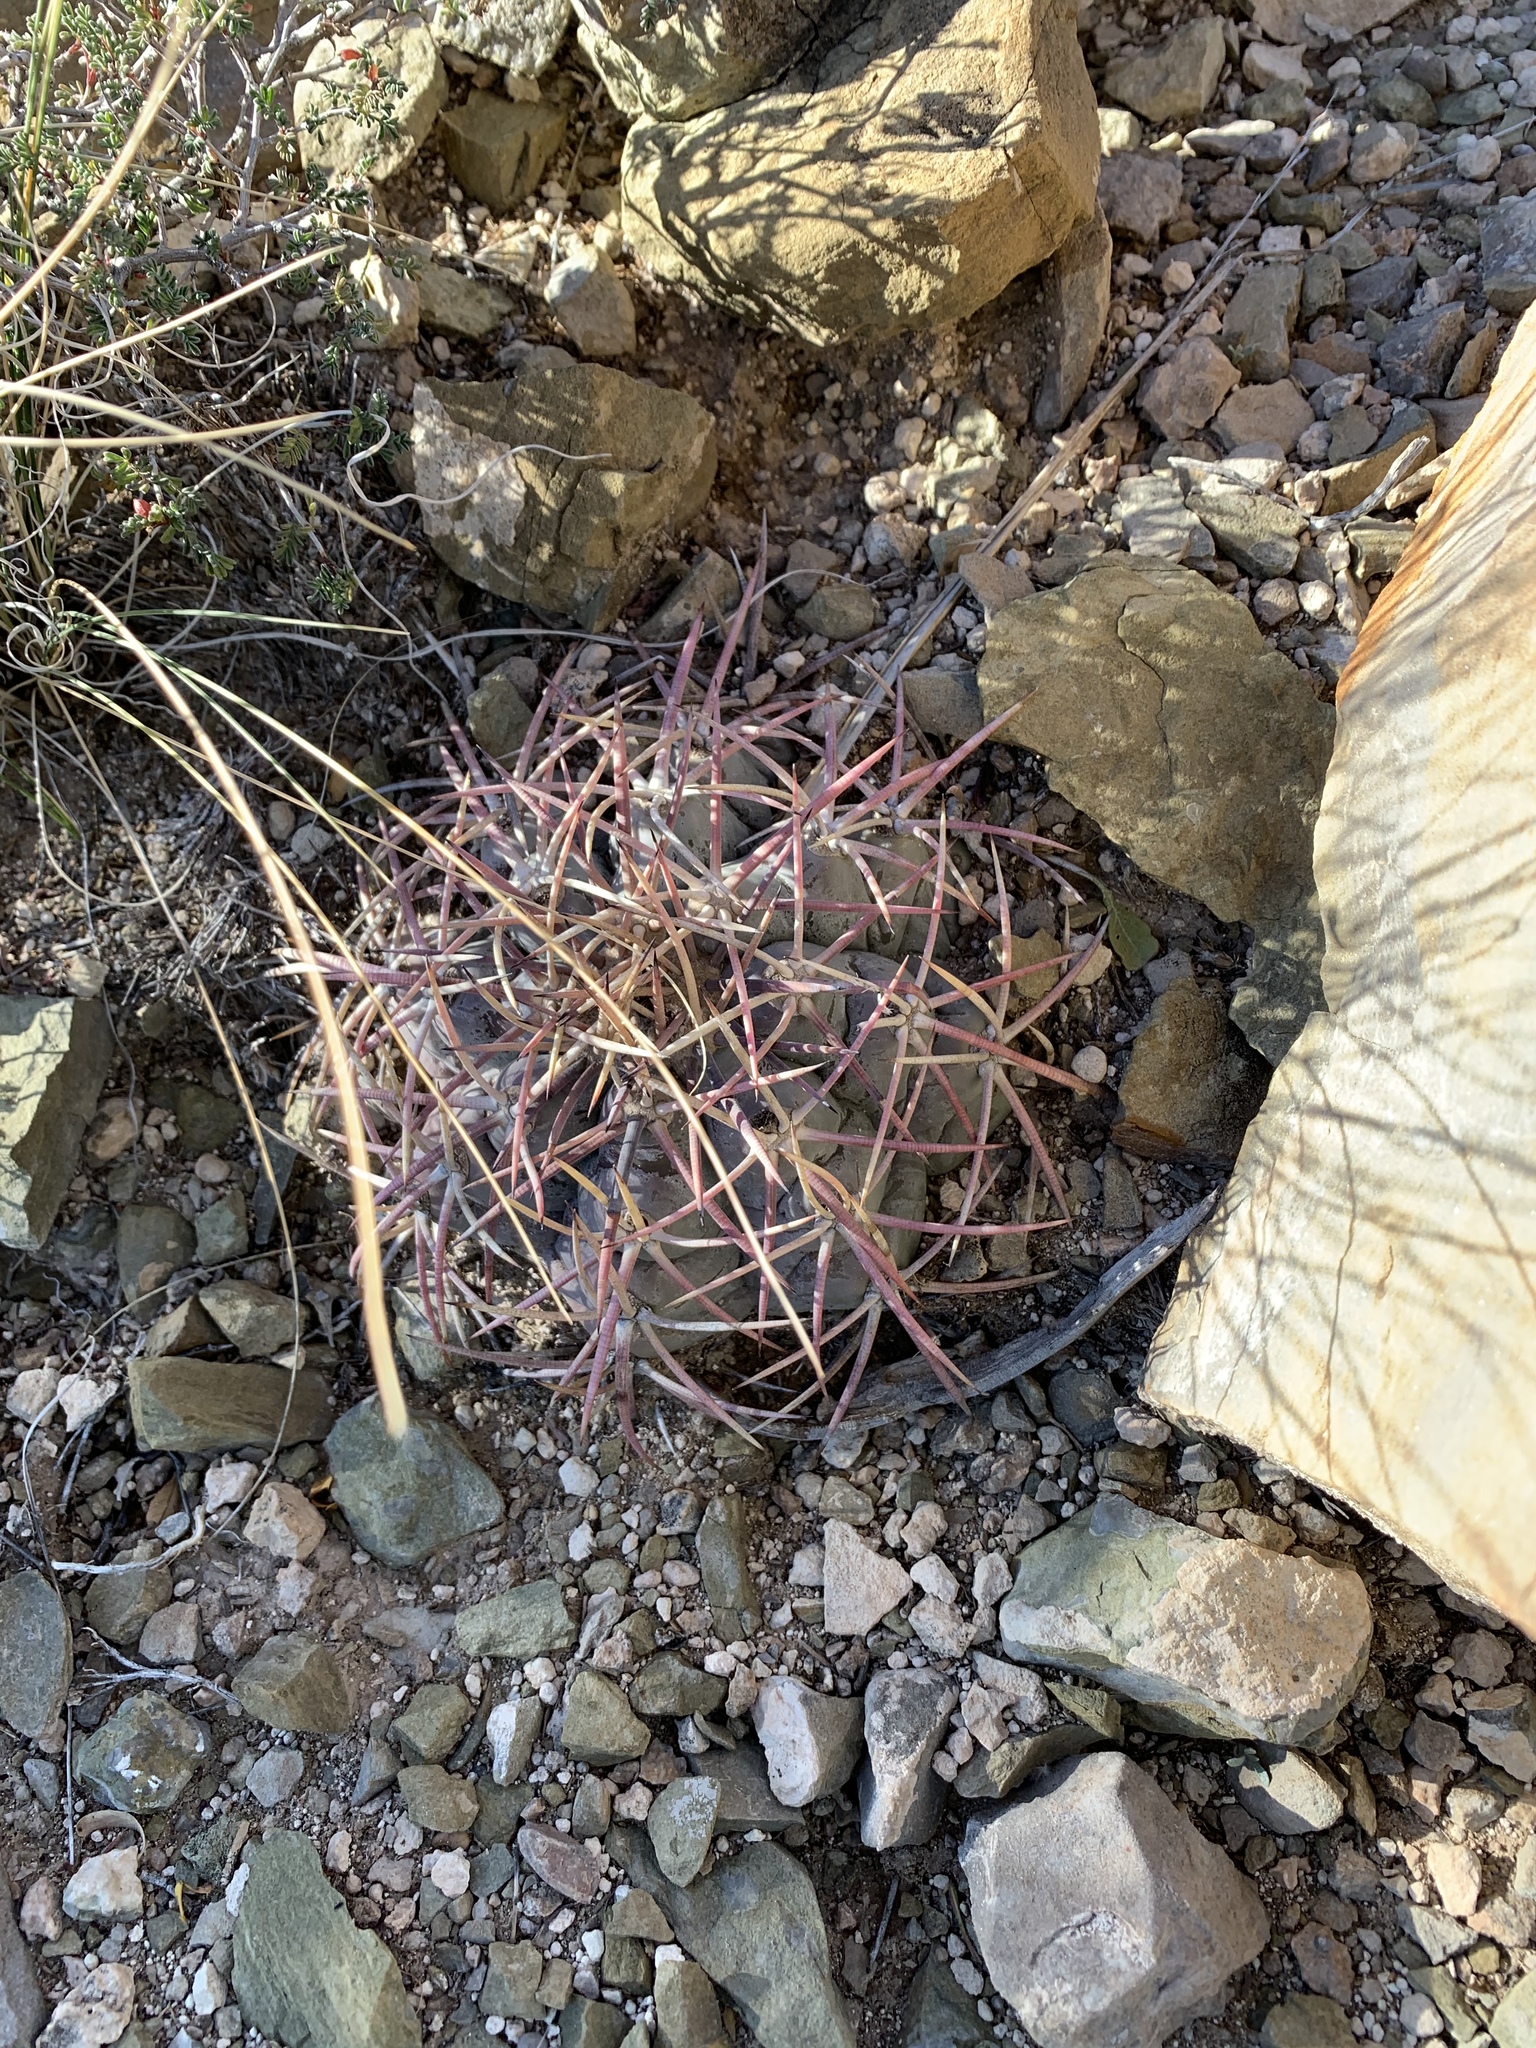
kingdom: Plantae
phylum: Tracheophyta
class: Magnoliopsida
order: Caryophyllales
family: Cactaceae
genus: Echinocactus
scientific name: Echinocactus horizonthalonius
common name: Devilshead
